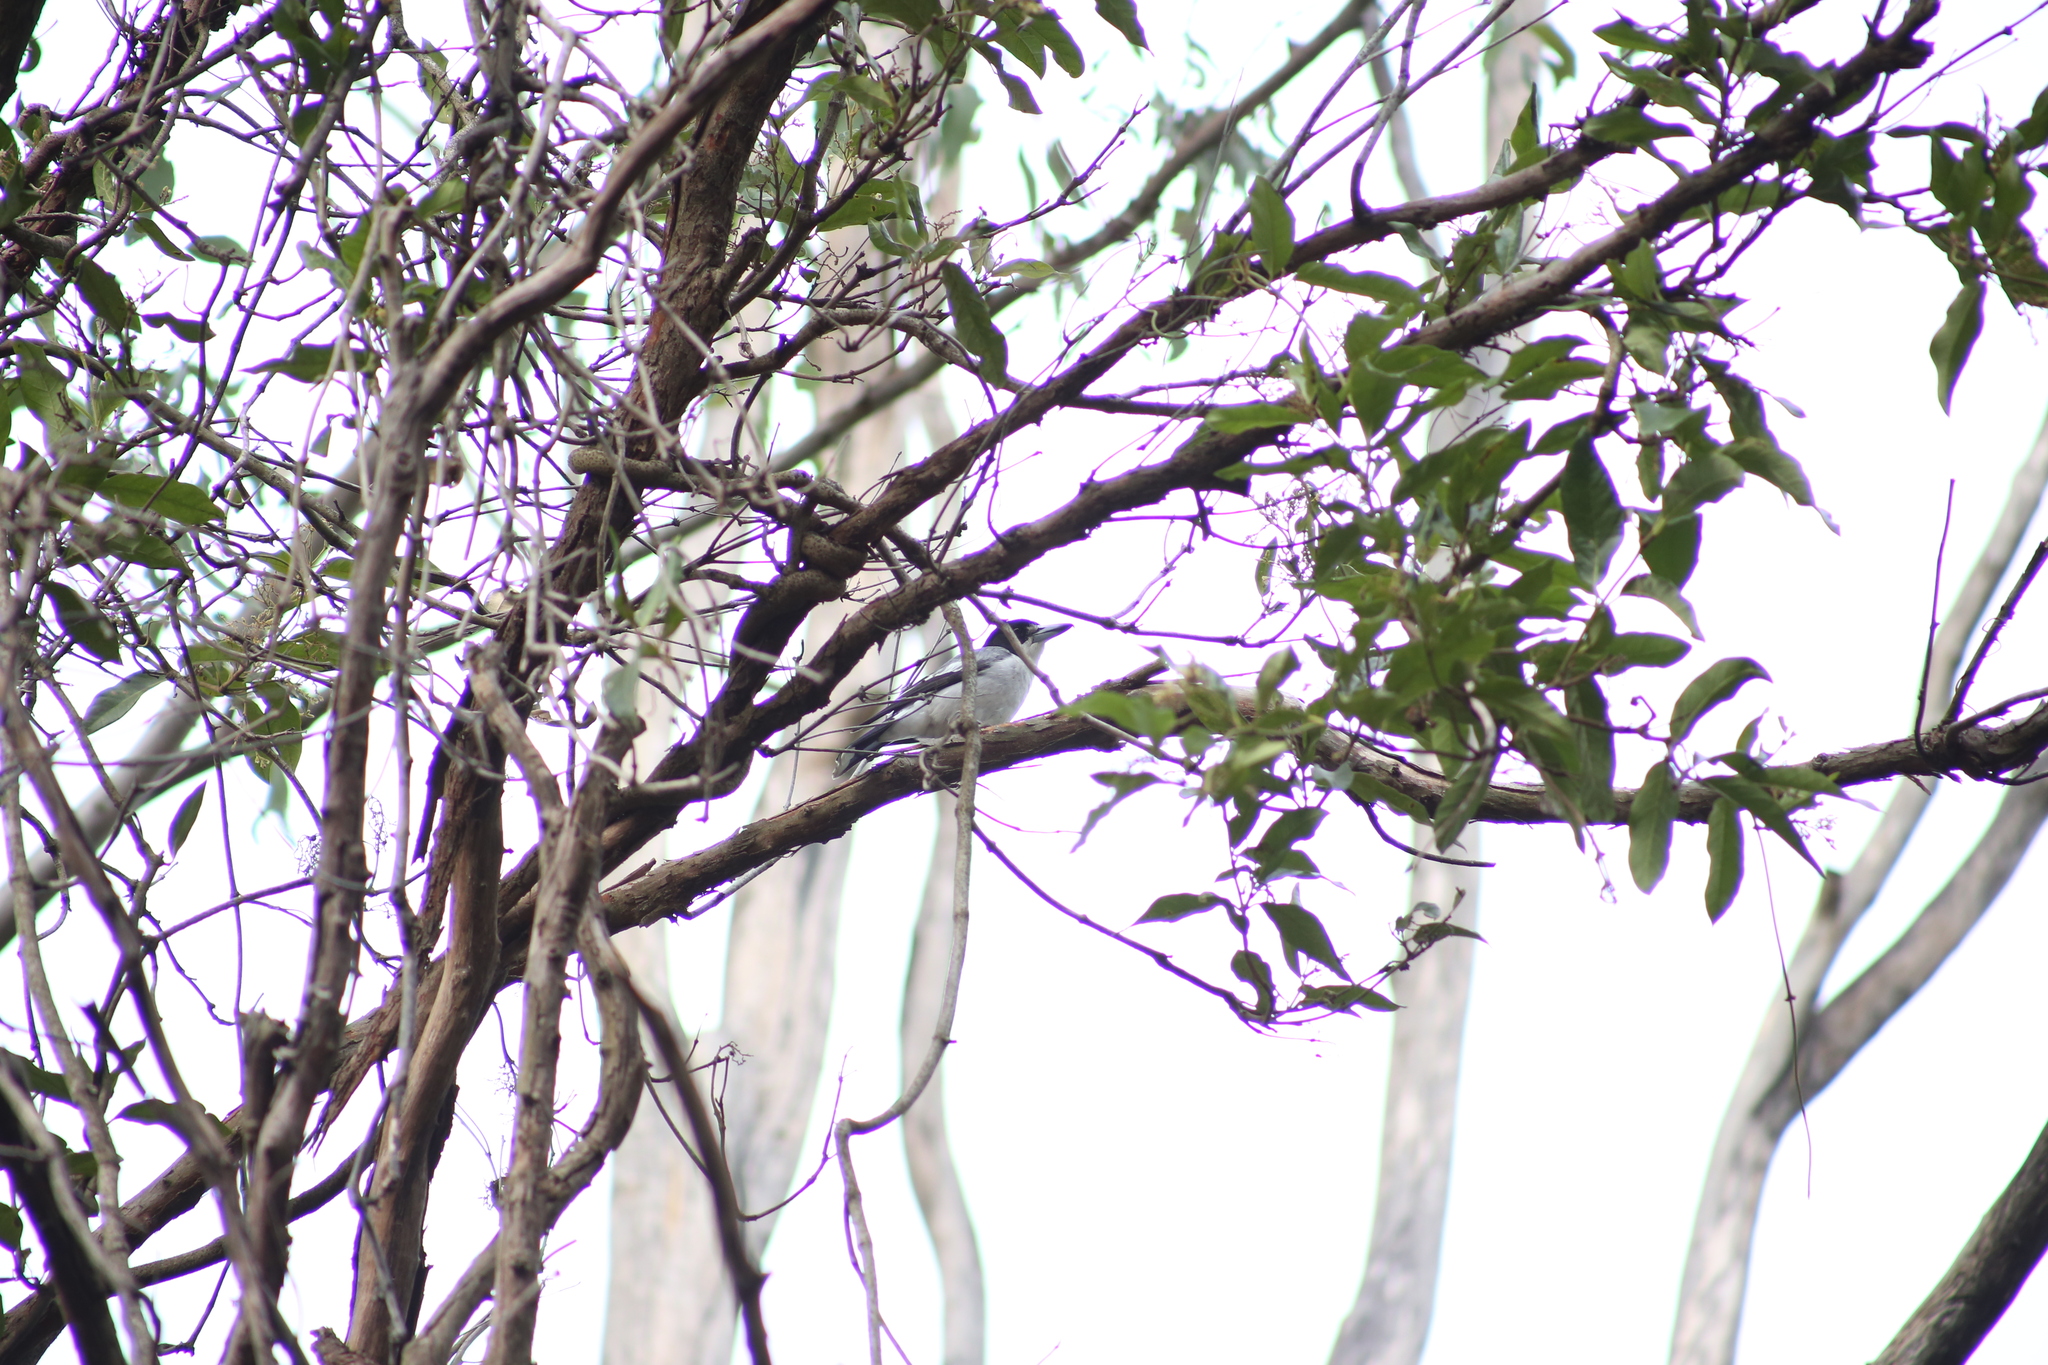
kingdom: Animalia
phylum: Chordata
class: Aves
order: Passeriformes
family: Cracticidae
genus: Cracticus
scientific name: Cracticus torquatus
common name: Grey butcherbird
